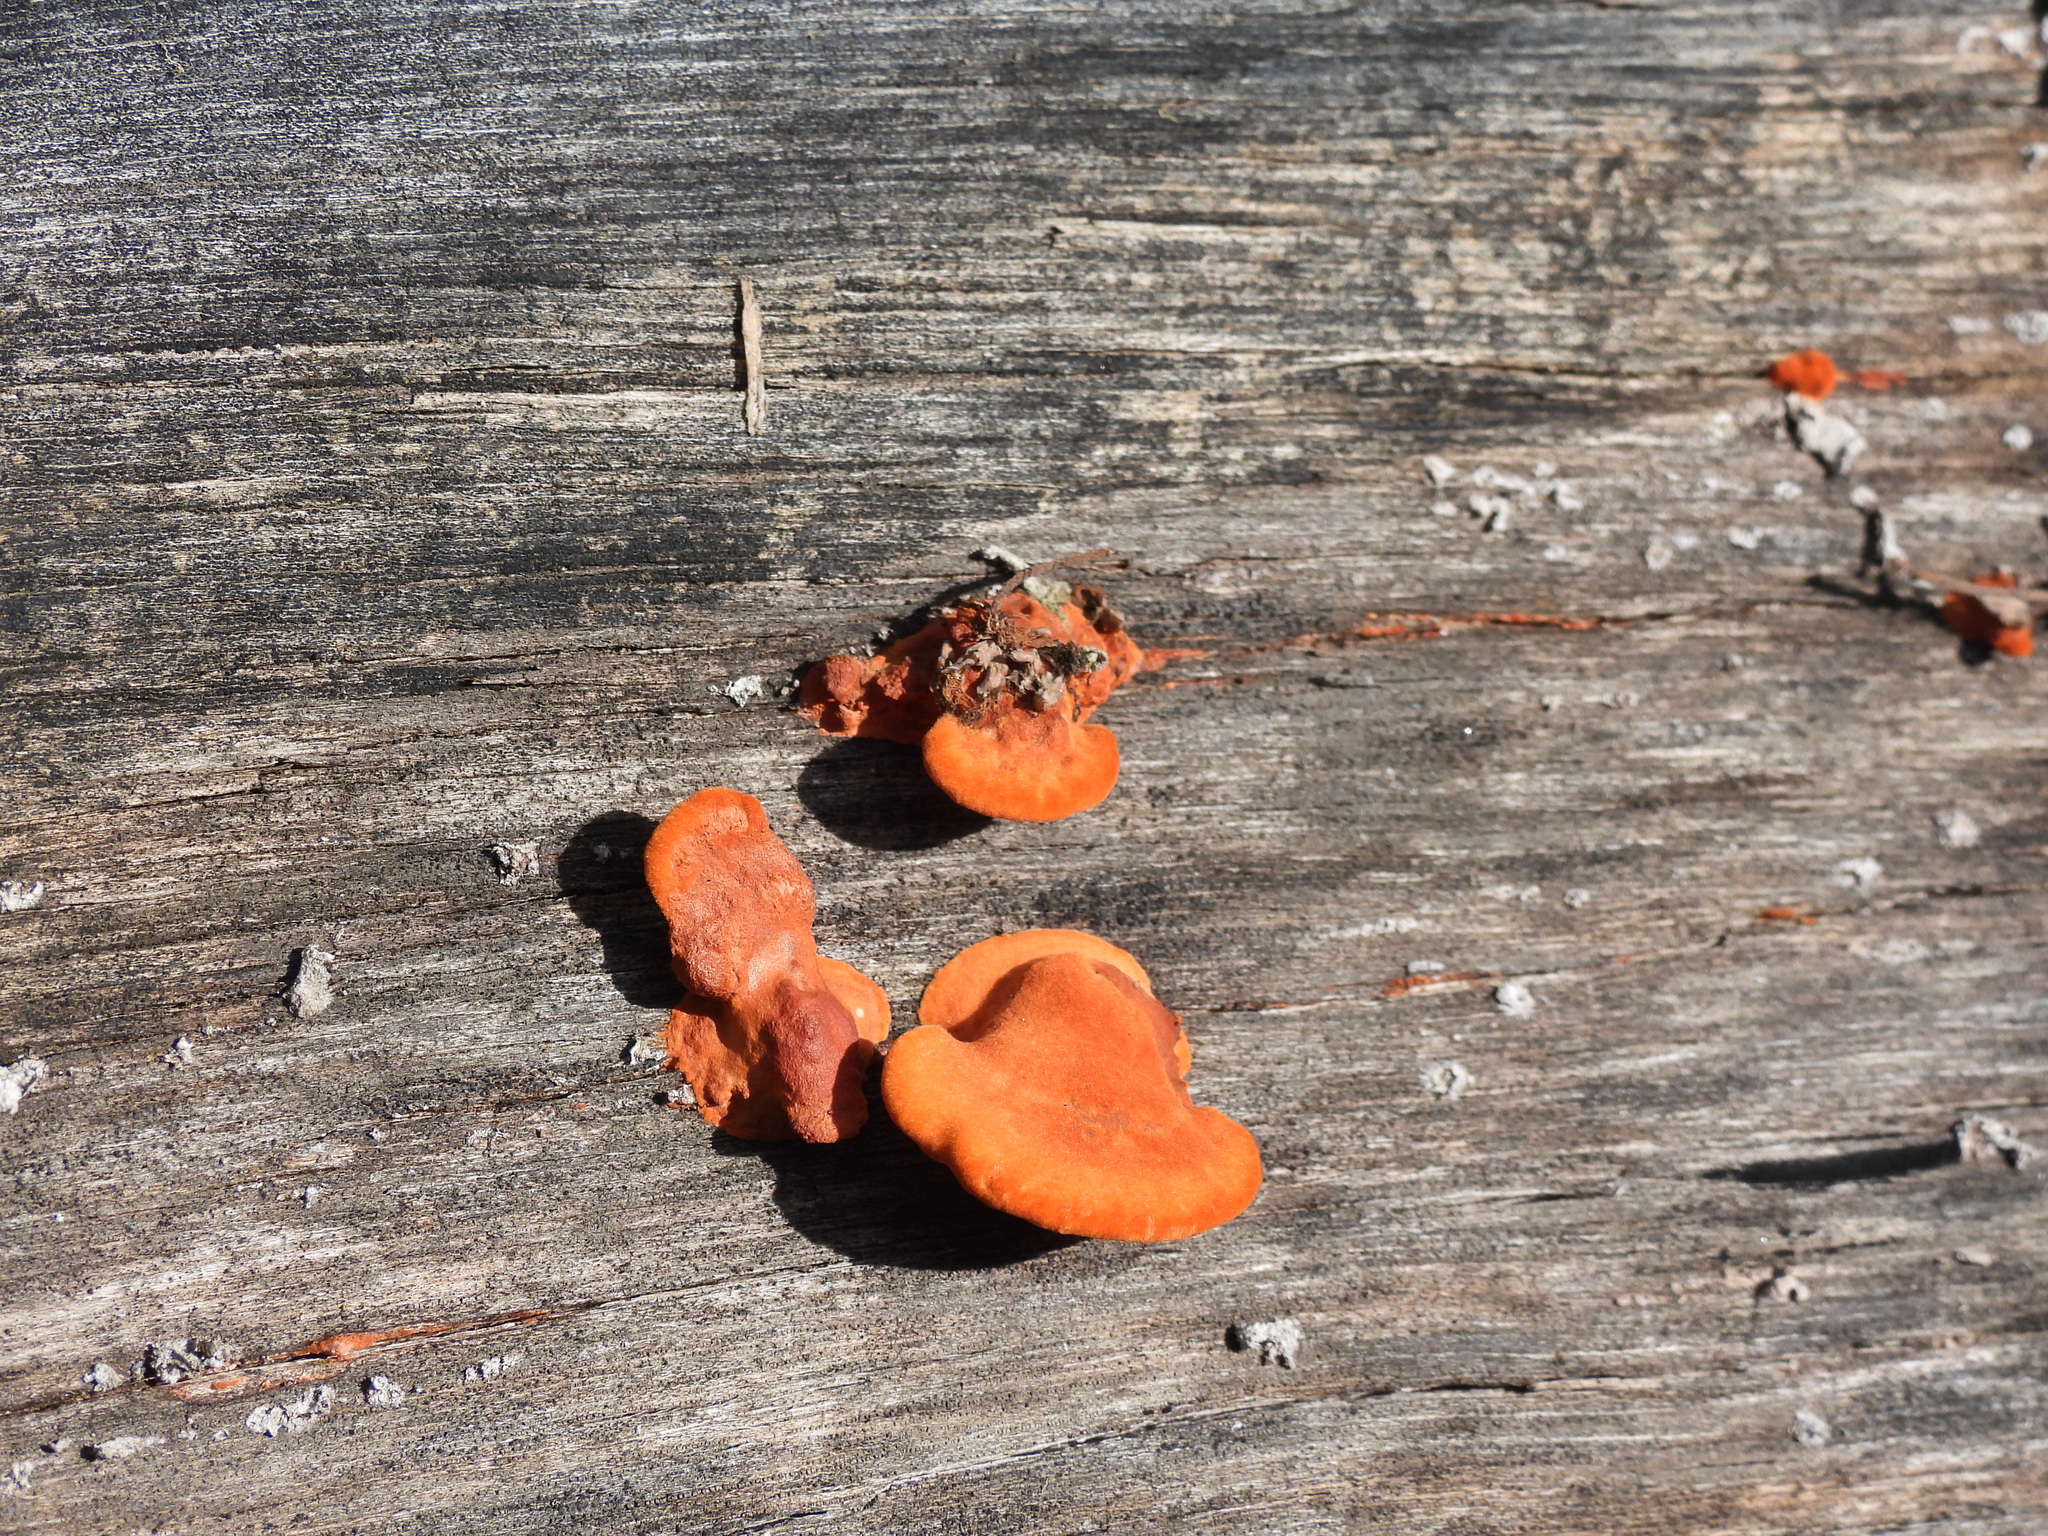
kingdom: Fungi
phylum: Basidiomycota
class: Agaricomycetes
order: Polyporales
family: Polyporaceae
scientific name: Polyporaceae
